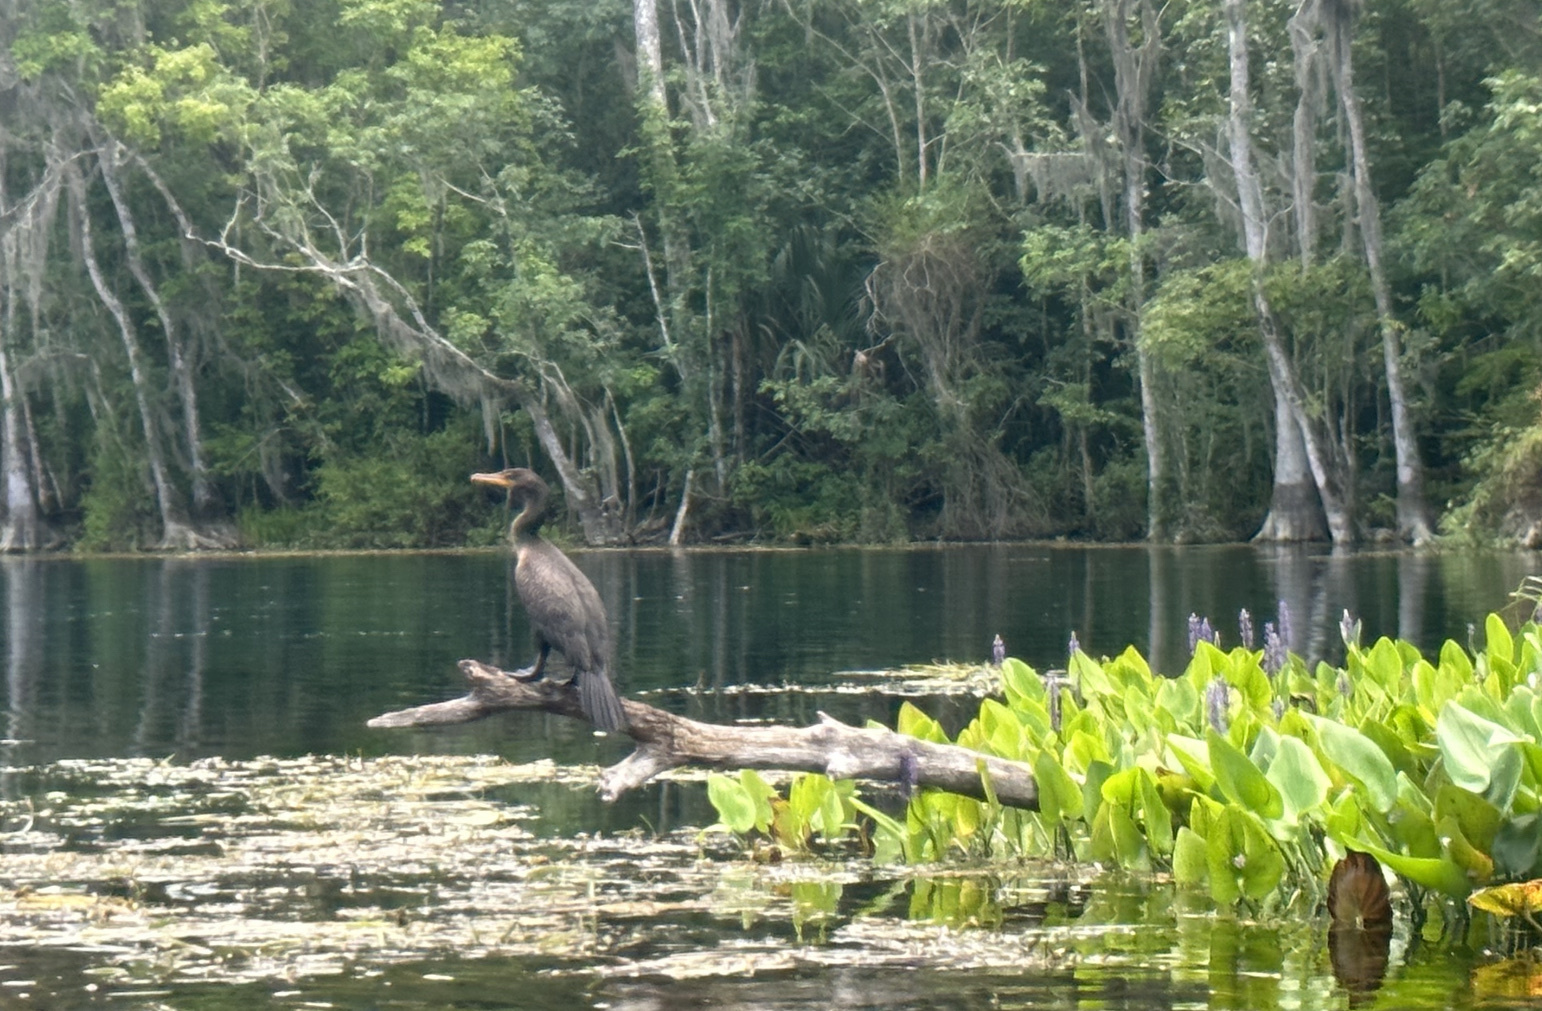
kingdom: Animalia
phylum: Chordata
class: Aves
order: Suliformes
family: Phalacrocoracidae
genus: Phalacrocorax
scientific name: Phalacrocorax auritus
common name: Double-crested cormorant
